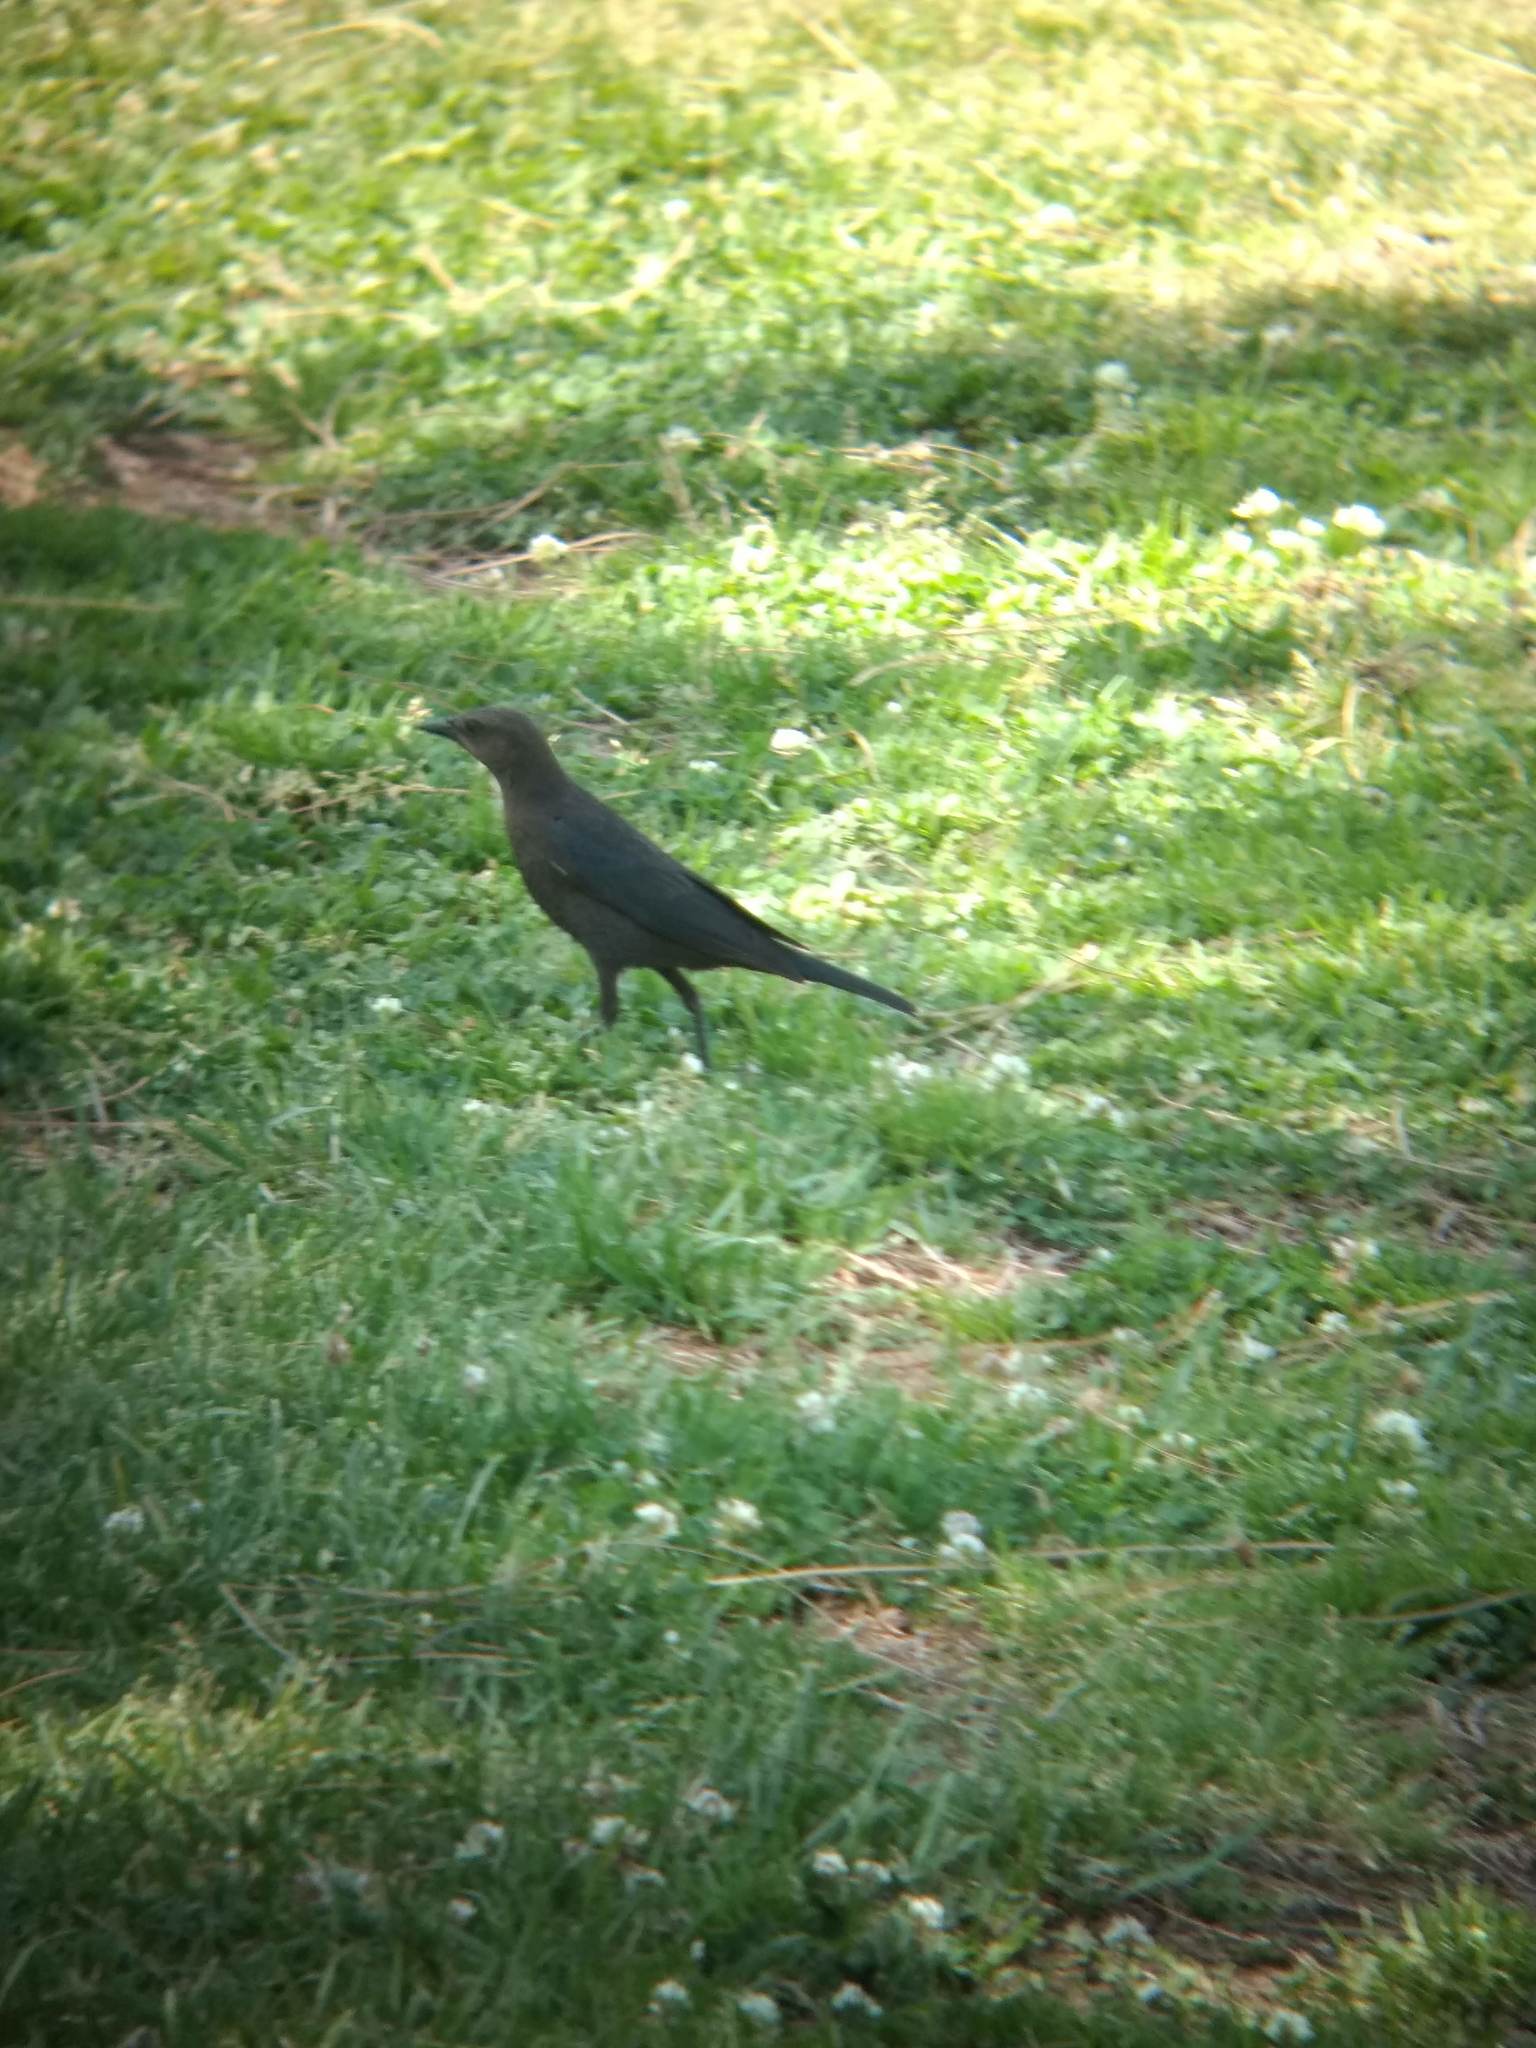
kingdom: Animalia
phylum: Chordata
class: Aves
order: Passeriformes
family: Icteridae
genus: Euphagus
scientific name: Euphagus cyanocephalus
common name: Brewer's blackbird
